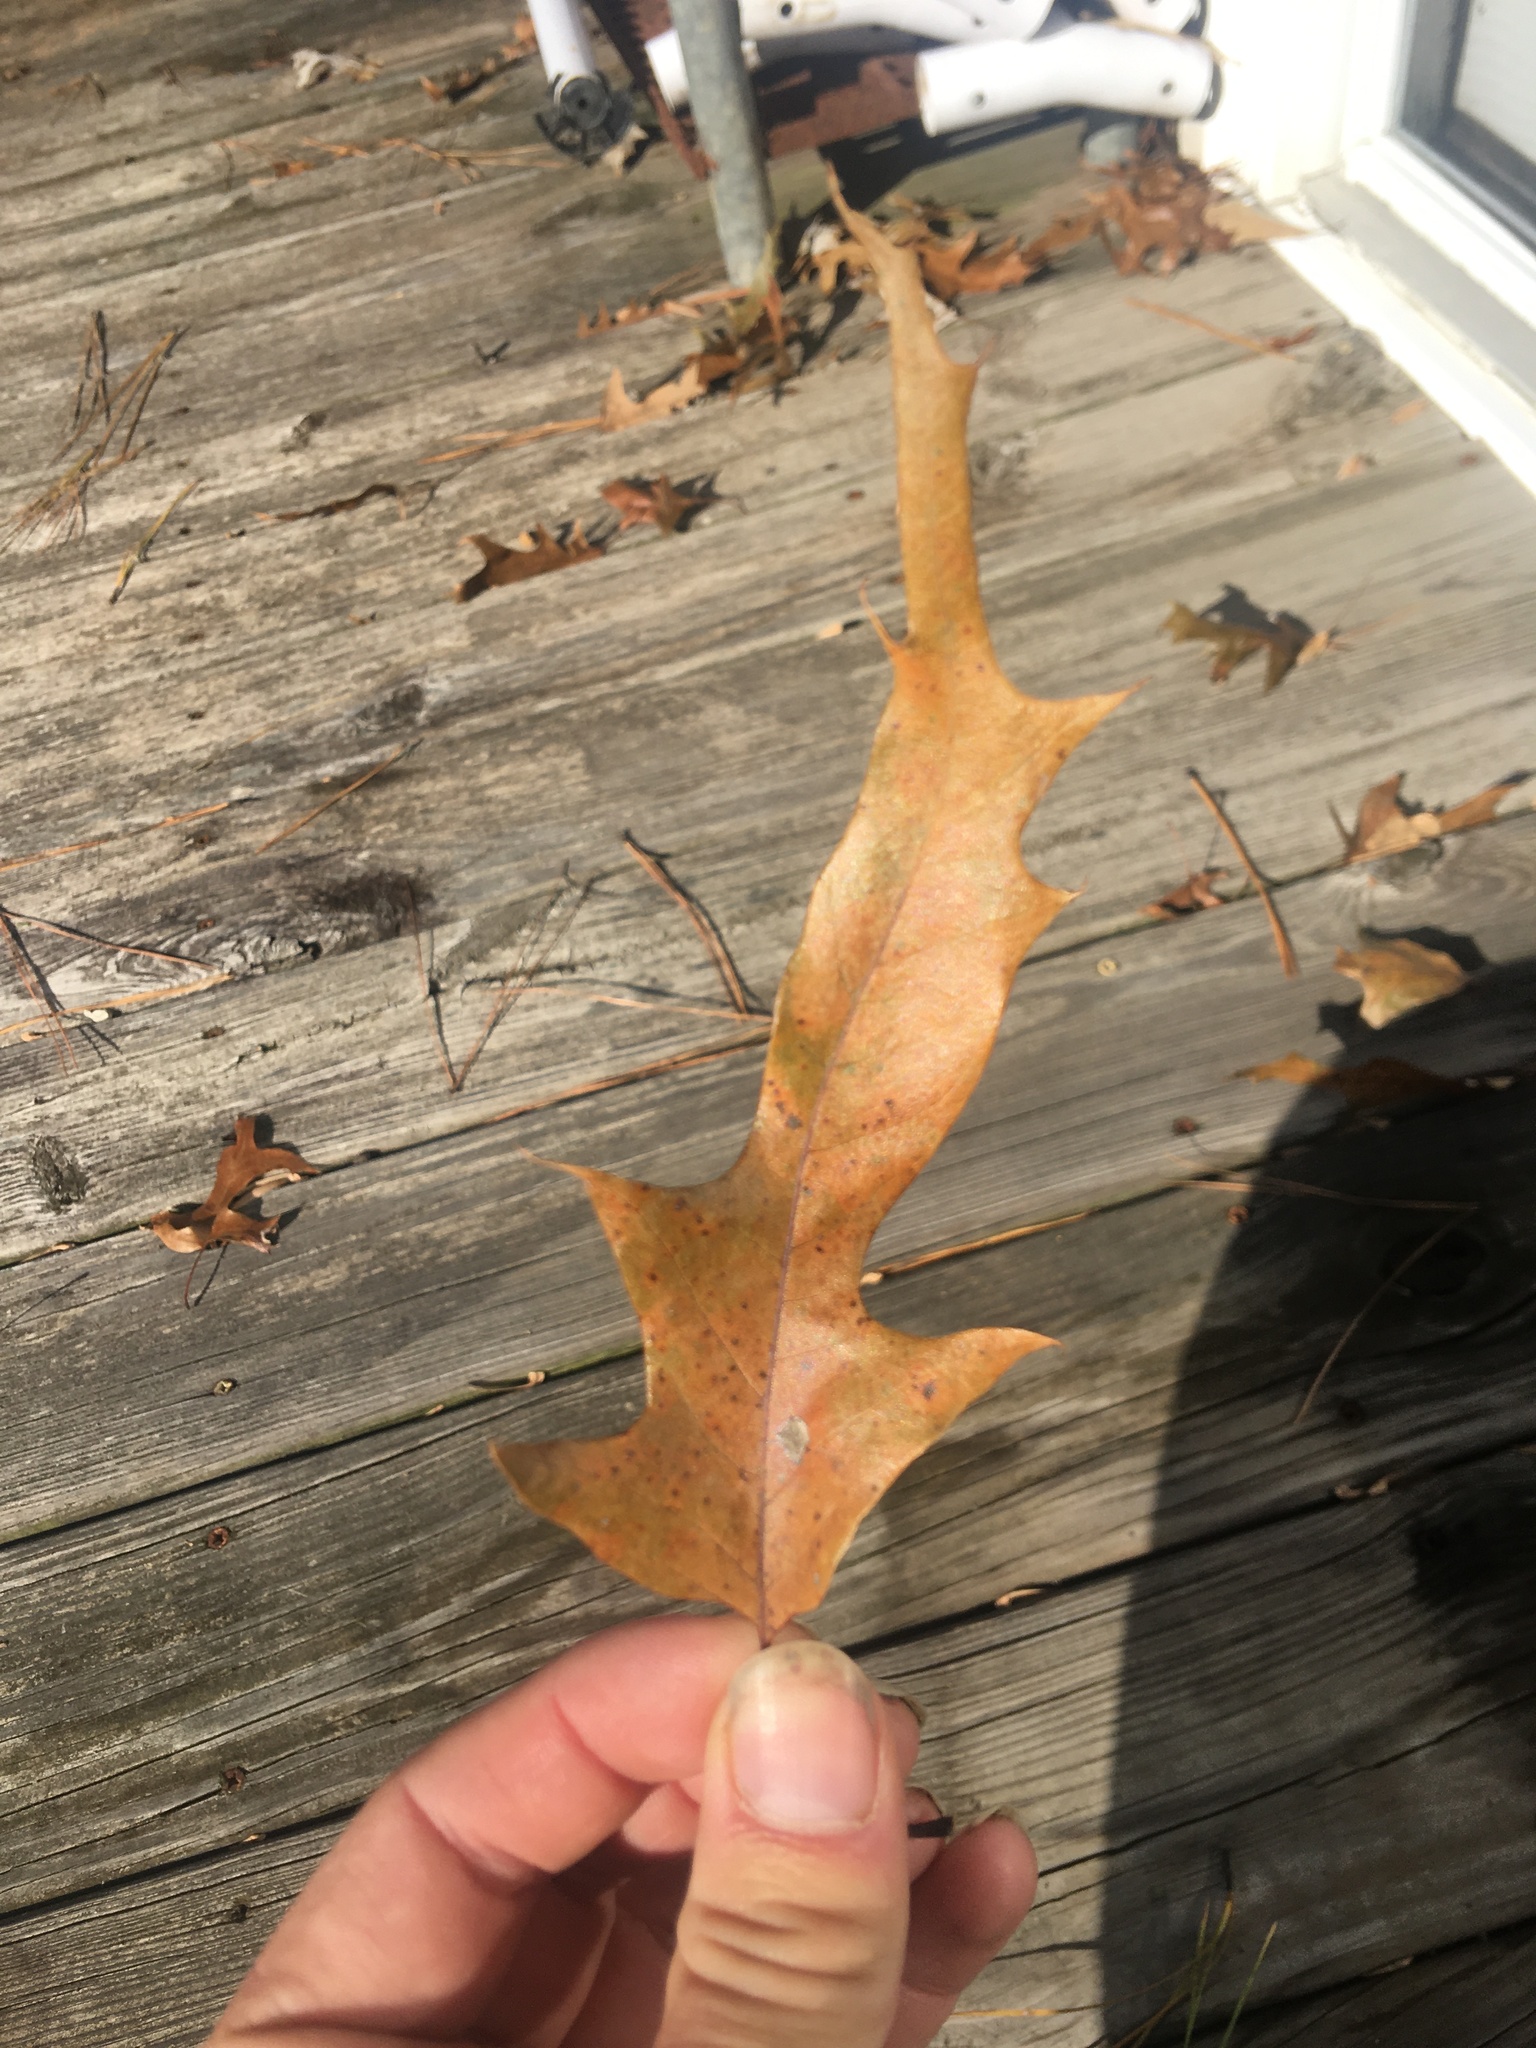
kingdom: Plantae
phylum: Tracheophyta
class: Magnoliopsida
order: Fagales
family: Fagaceae
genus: Quercus
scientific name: Quercus falcata
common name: Southern red oak
